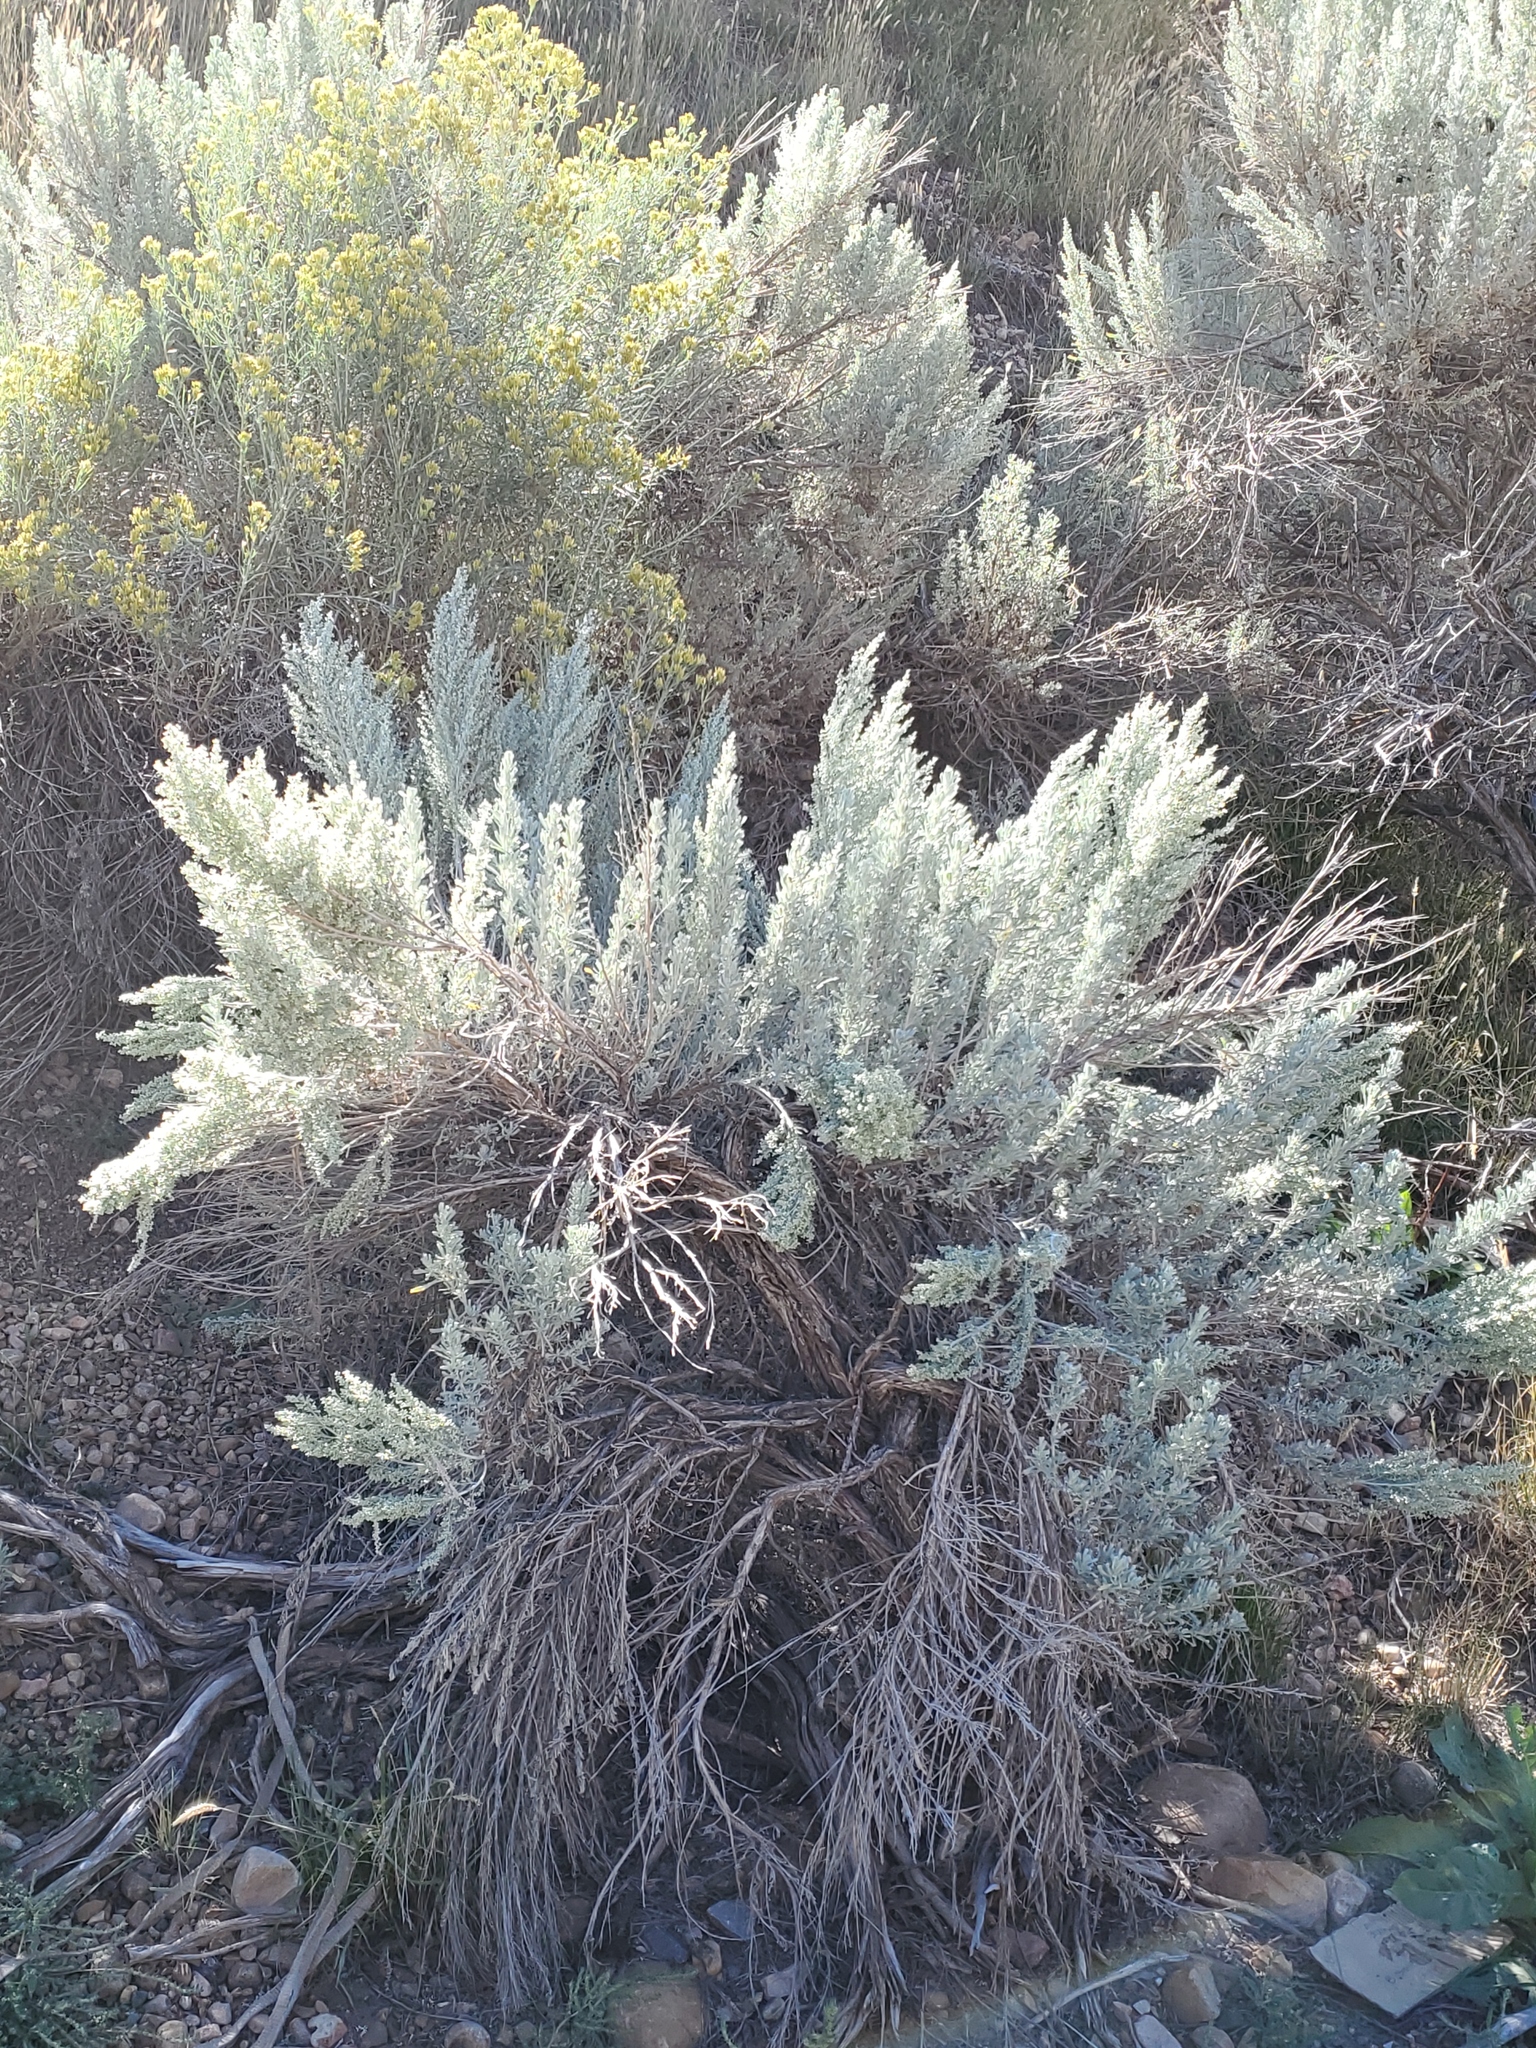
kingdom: Plantae
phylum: Tracheophyta
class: Magnoliopsida
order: Asterales
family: Asteraceae
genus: Artemisia
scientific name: Artemisia tridentata
